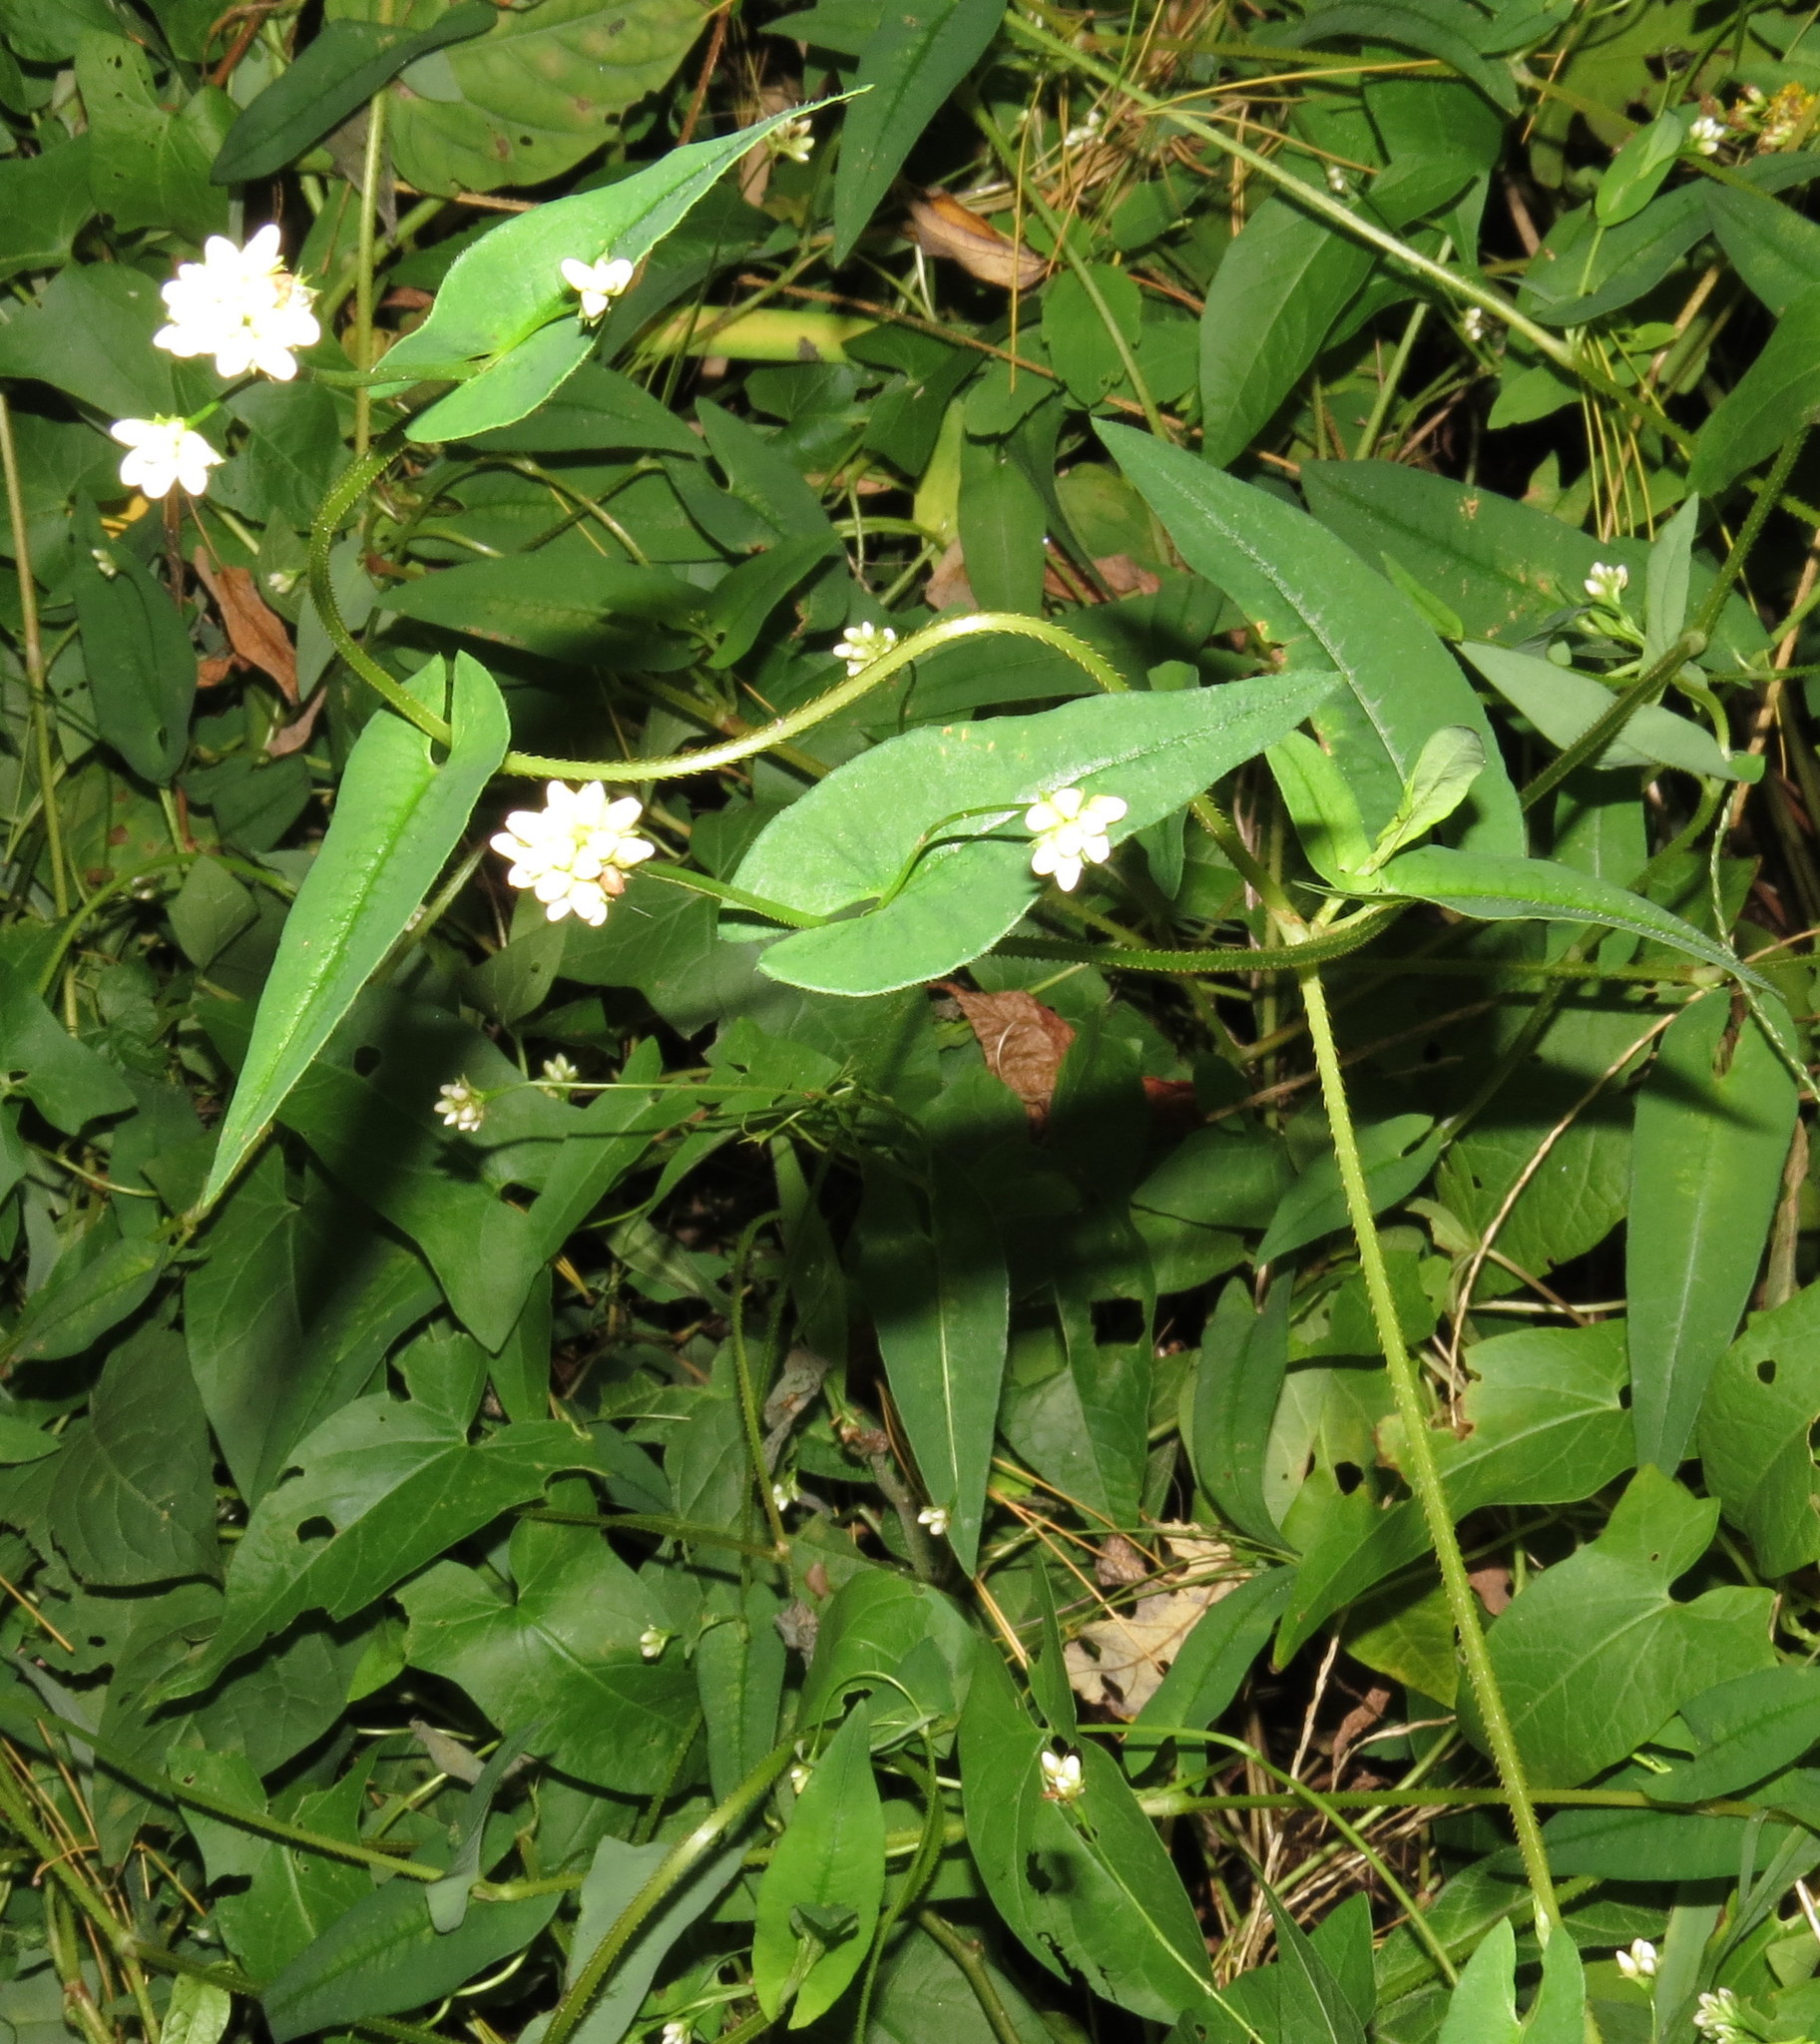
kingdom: Plantae
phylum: Tracheophyta
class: Magnoliopsida
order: Caryophyllales
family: Polygonaceae
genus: Persicaria
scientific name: Persicaria sagittata
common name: American tearthumb
